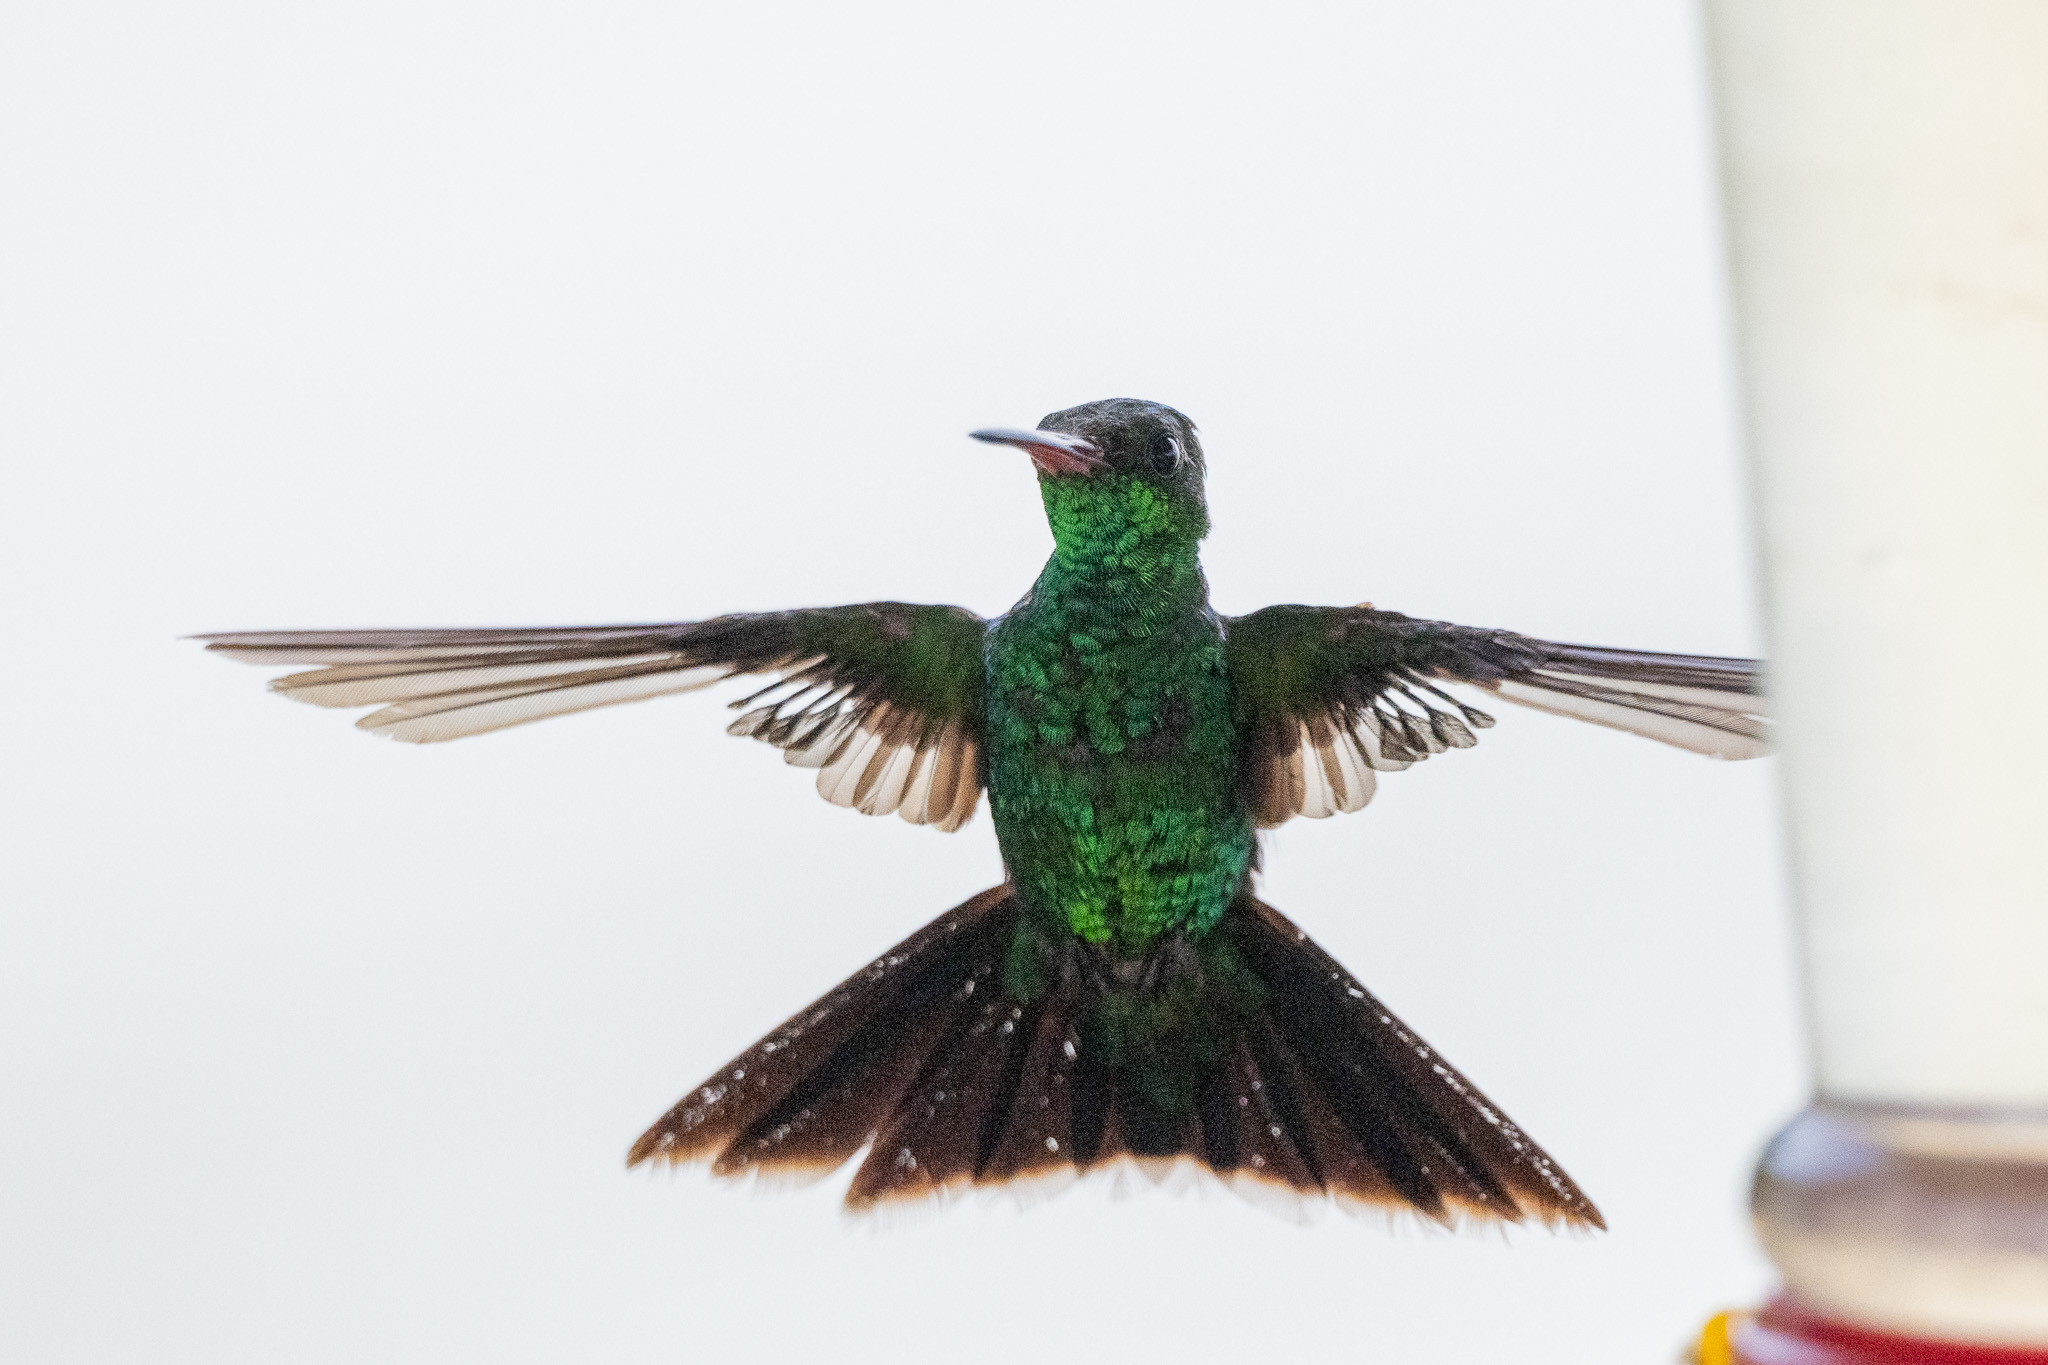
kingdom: Animalia
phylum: Chordata
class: Aves
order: Apodiformes
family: Trochilidae
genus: Cynanthus
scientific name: Cynanthus canivetii
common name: Canivet's emerald
